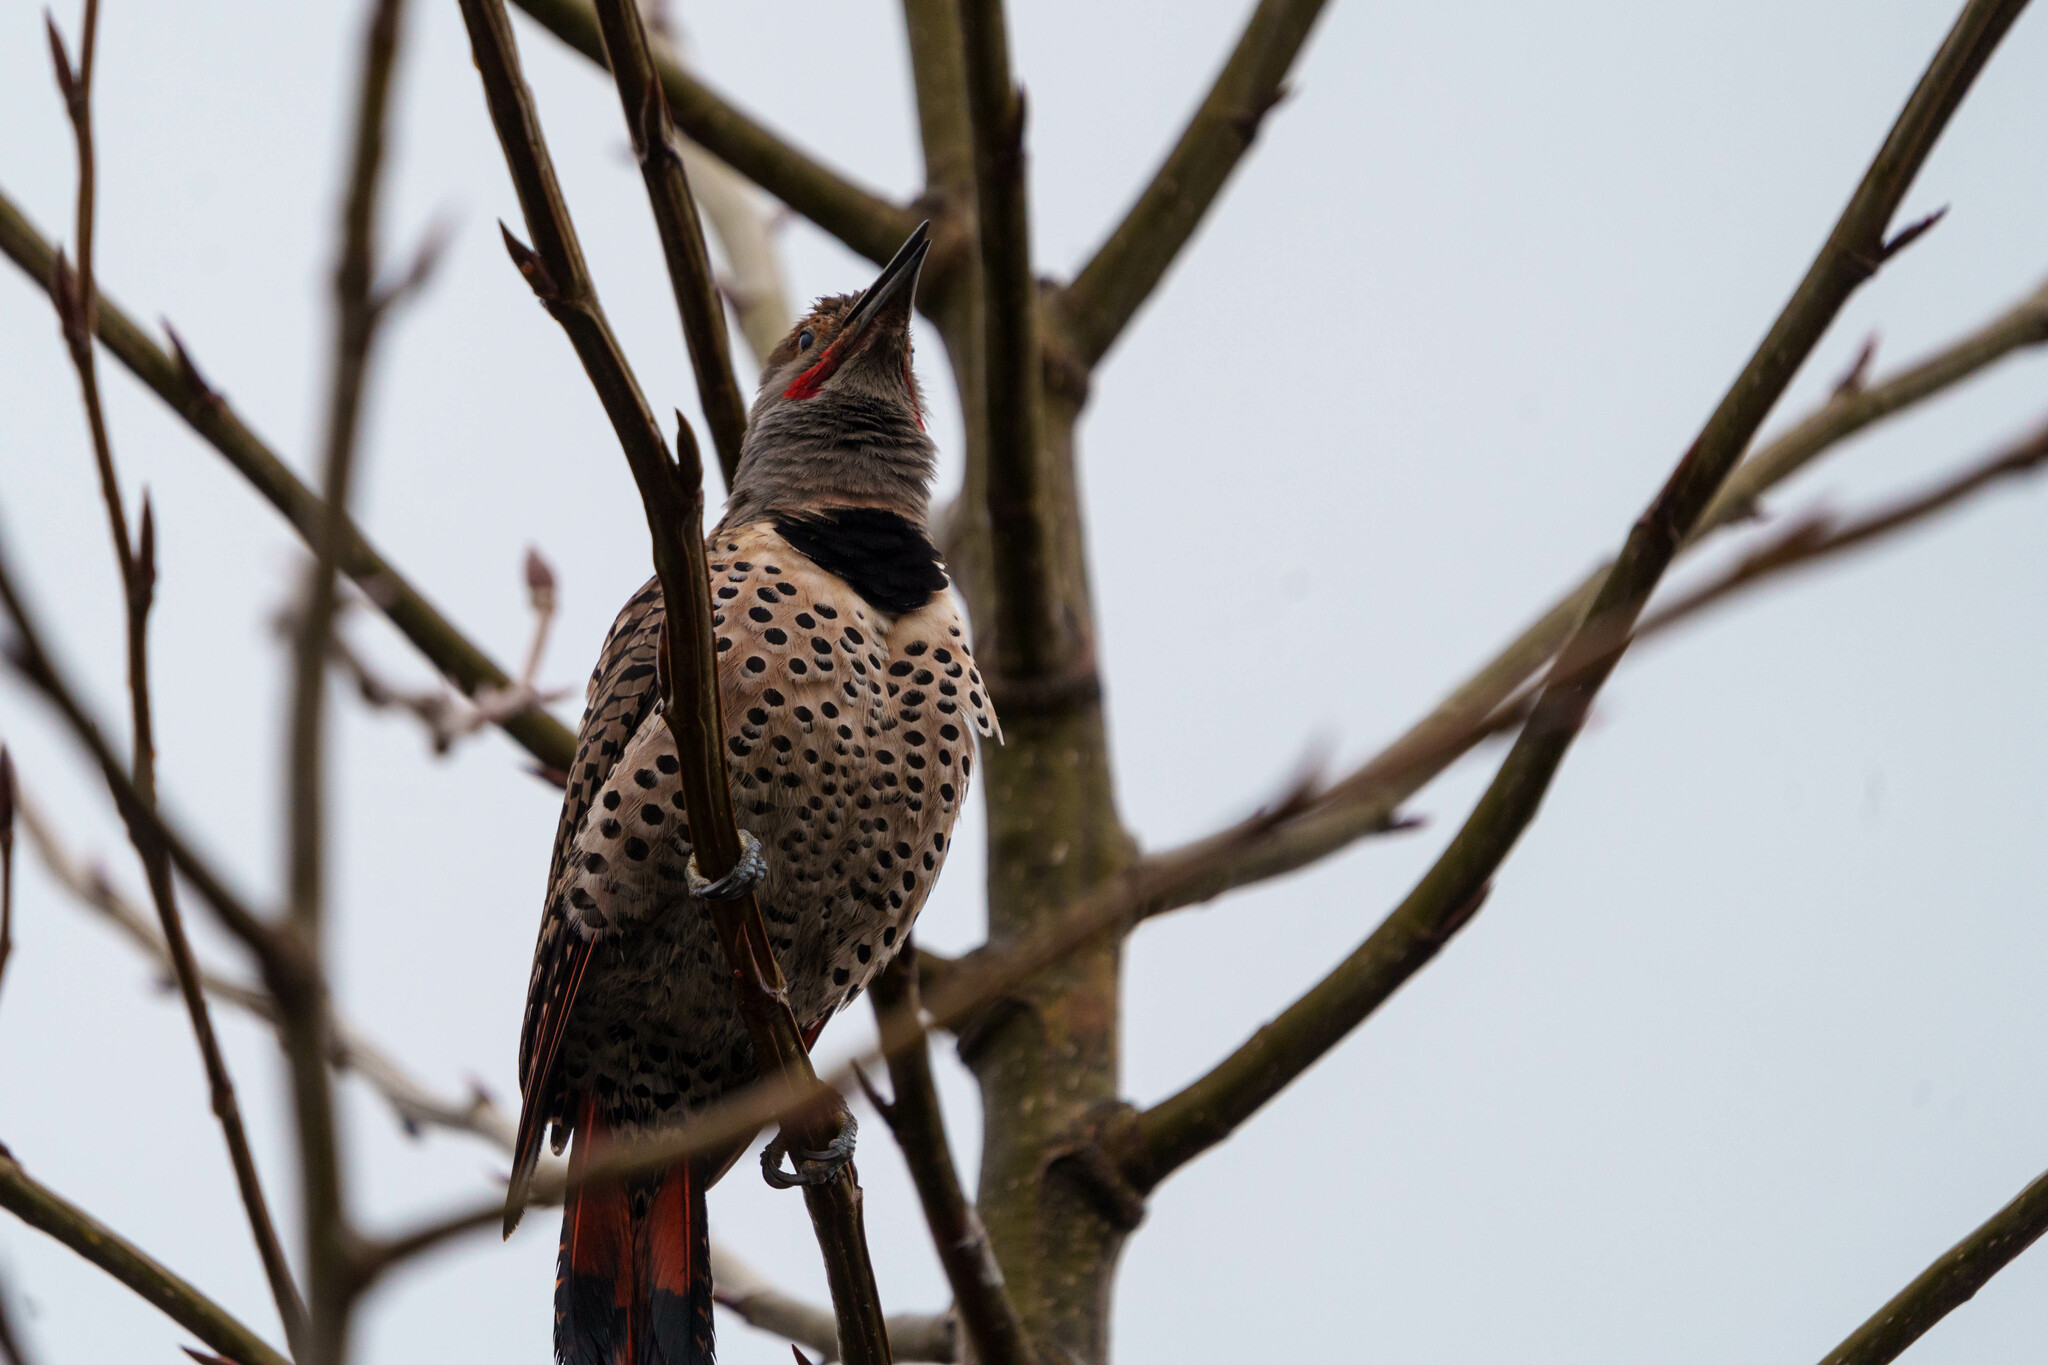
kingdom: Animalia
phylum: Chordata
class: Aves
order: Piciformes
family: Picidae
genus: Colaptes
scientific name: Colaptes auratus
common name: Northern flicker
